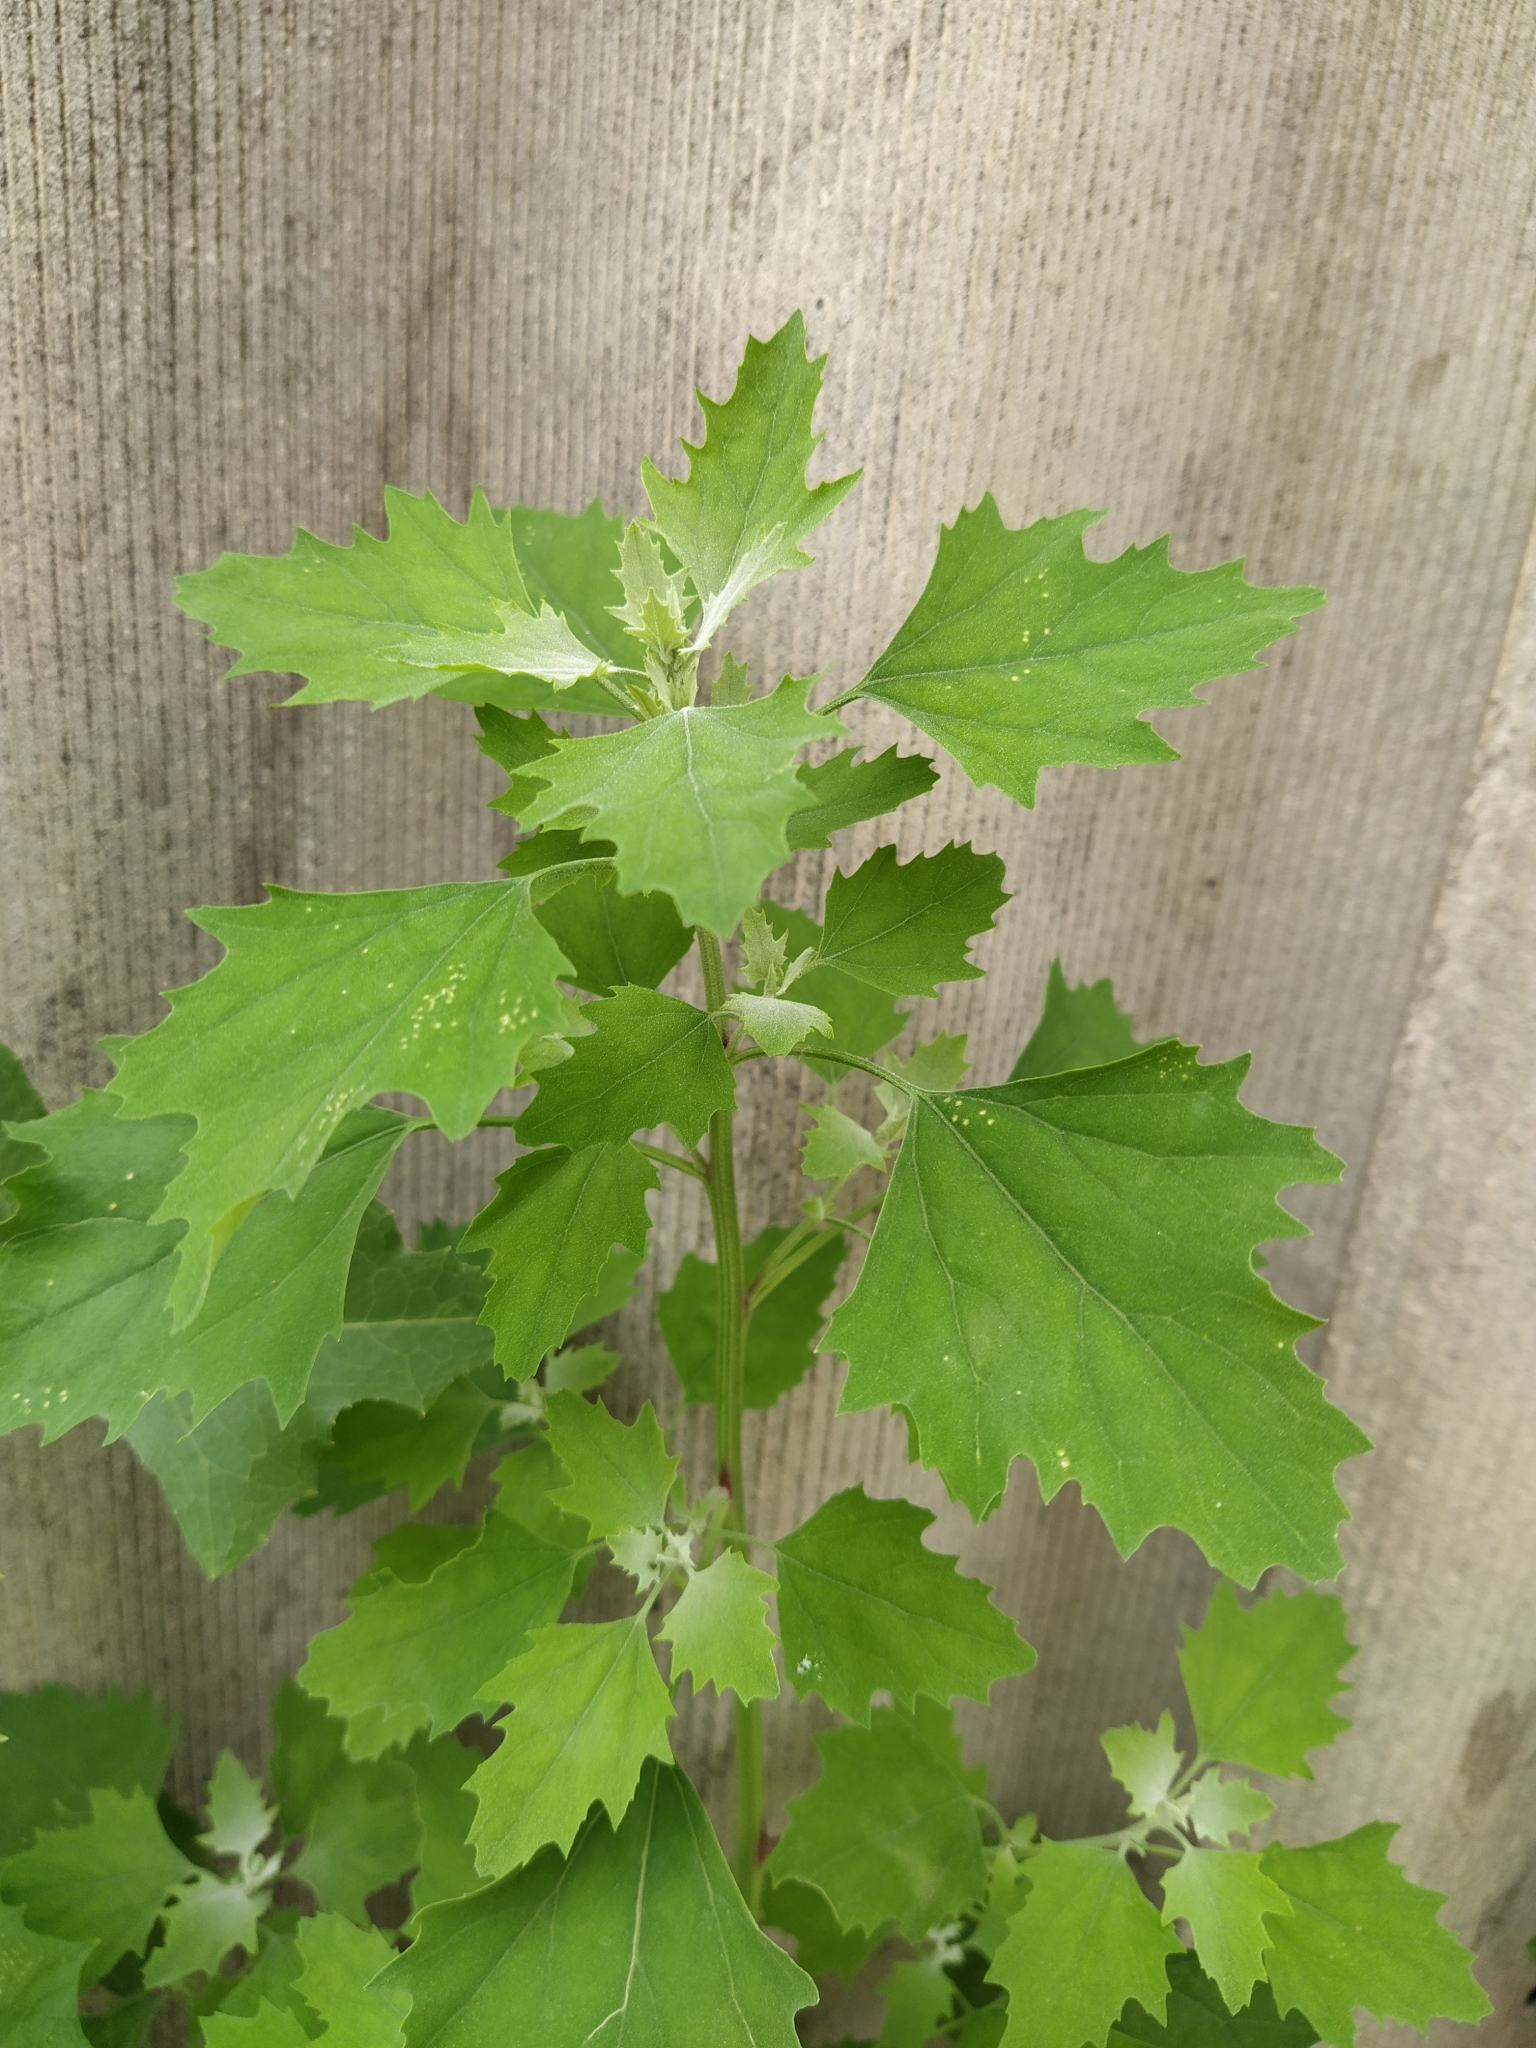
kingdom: Plantae
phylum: Tracheophyta
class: Magnoliopsida
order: Caryophyllales
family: Amaranthaceae
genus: Chenopodium
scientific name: Chenopodium album
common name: Fat-hen
